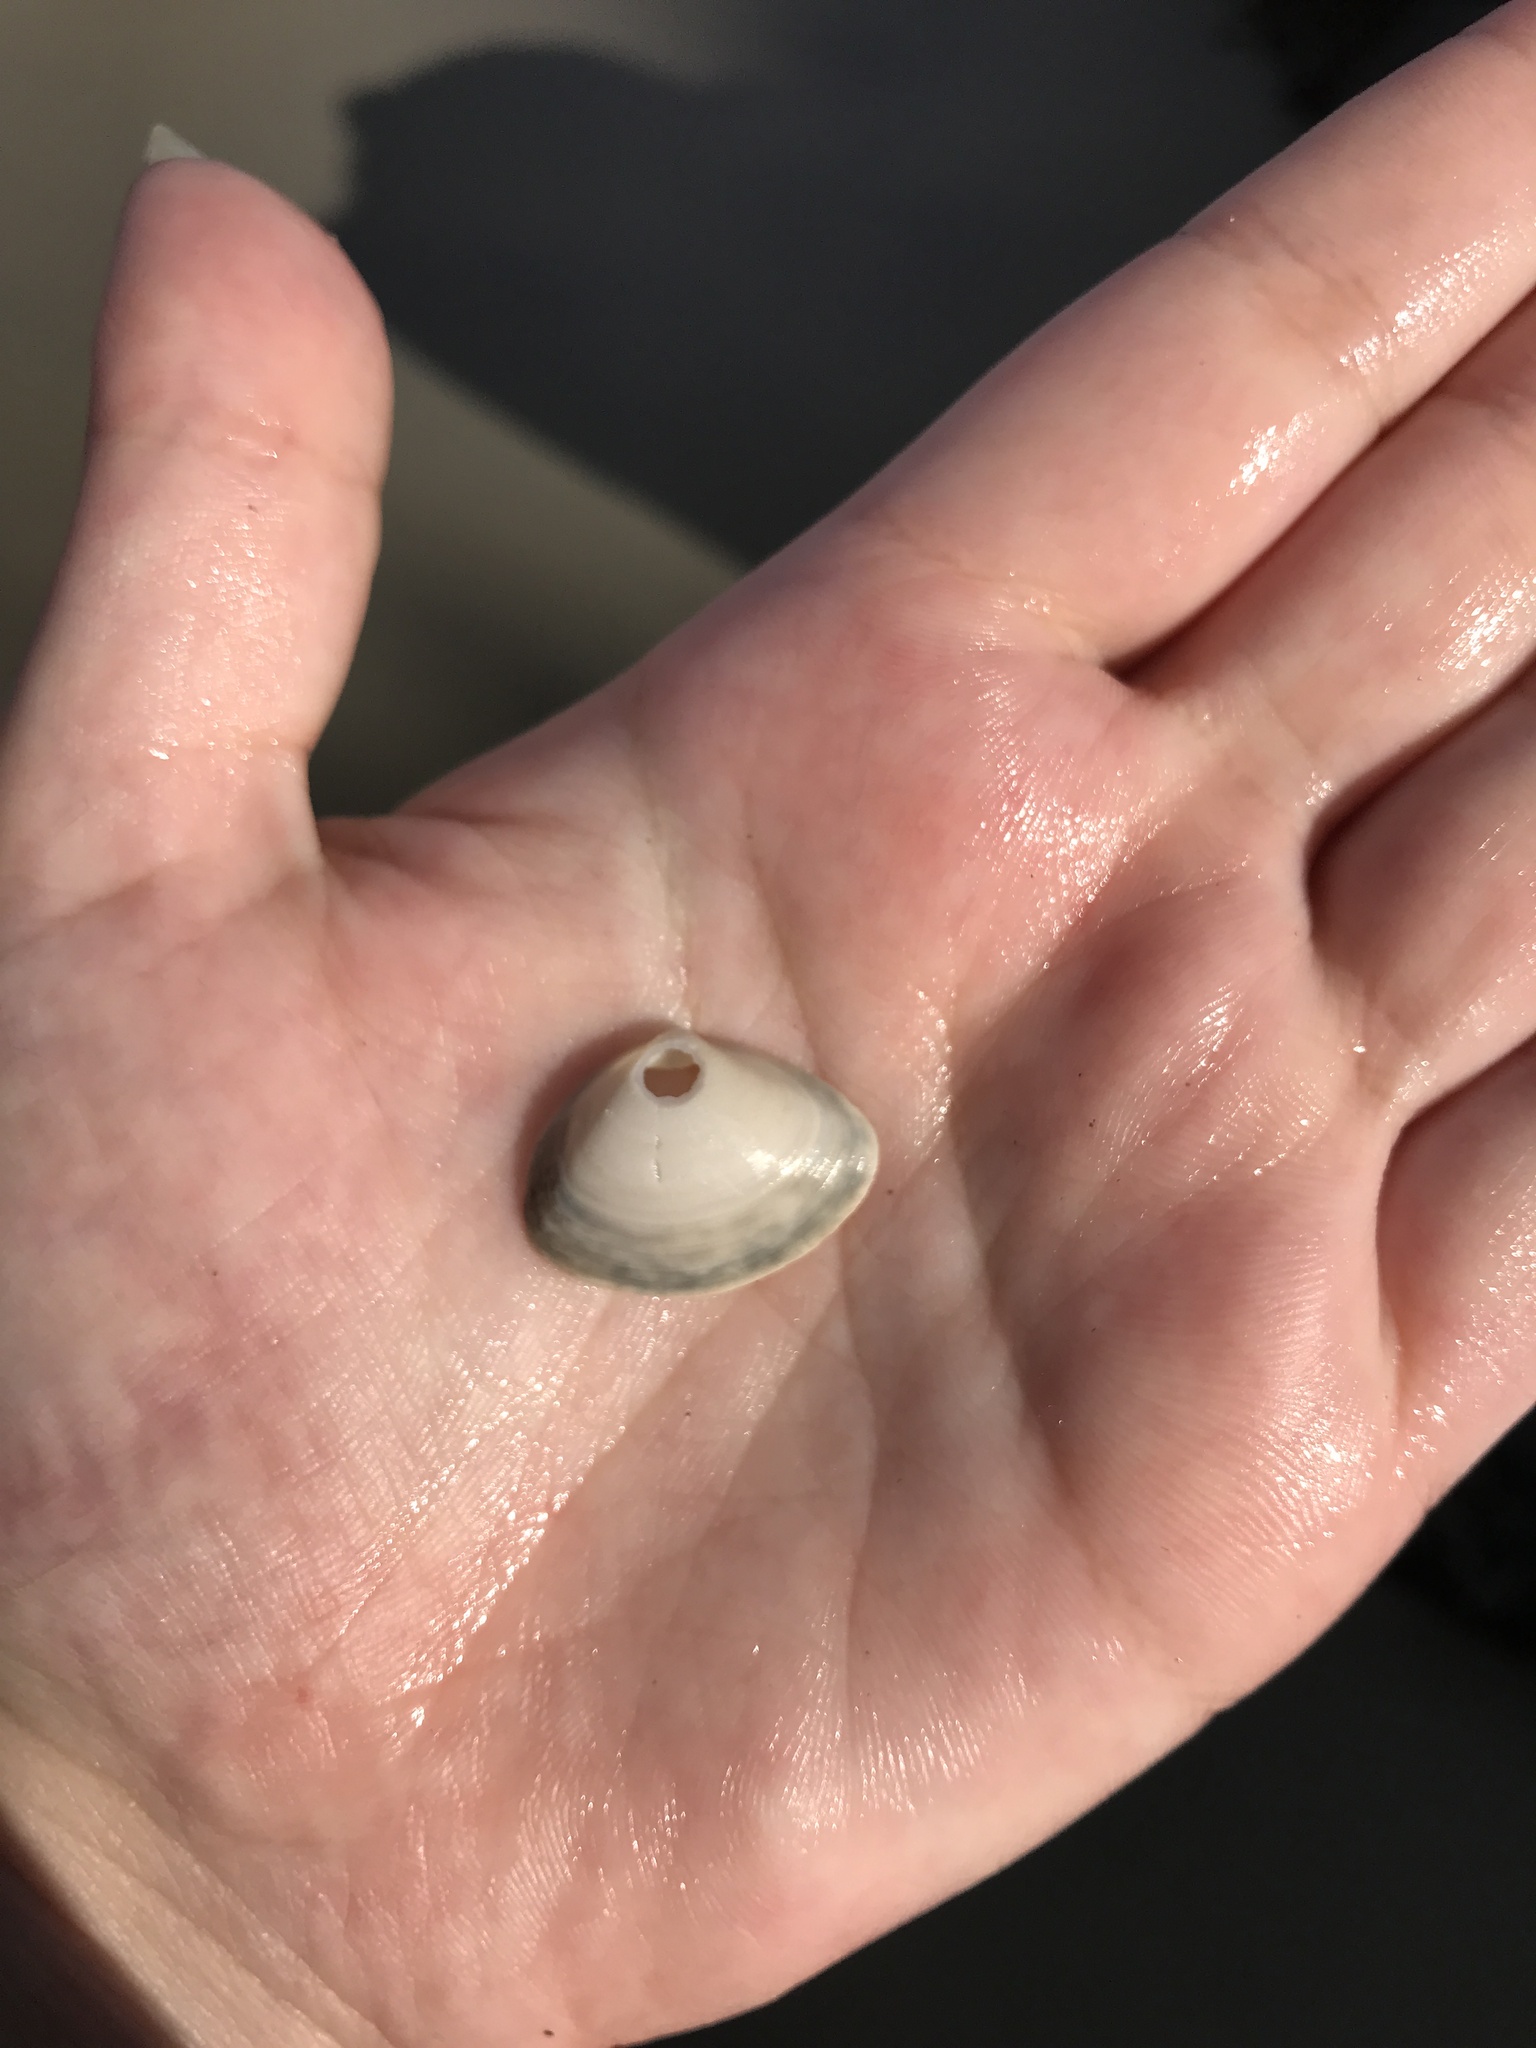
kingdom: Animalia
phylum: Mollusca
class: Bivalvia
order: Venerida
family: Mactridae
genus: Spisula
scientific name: Spisula solidissima
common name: Atlantic surf clam
